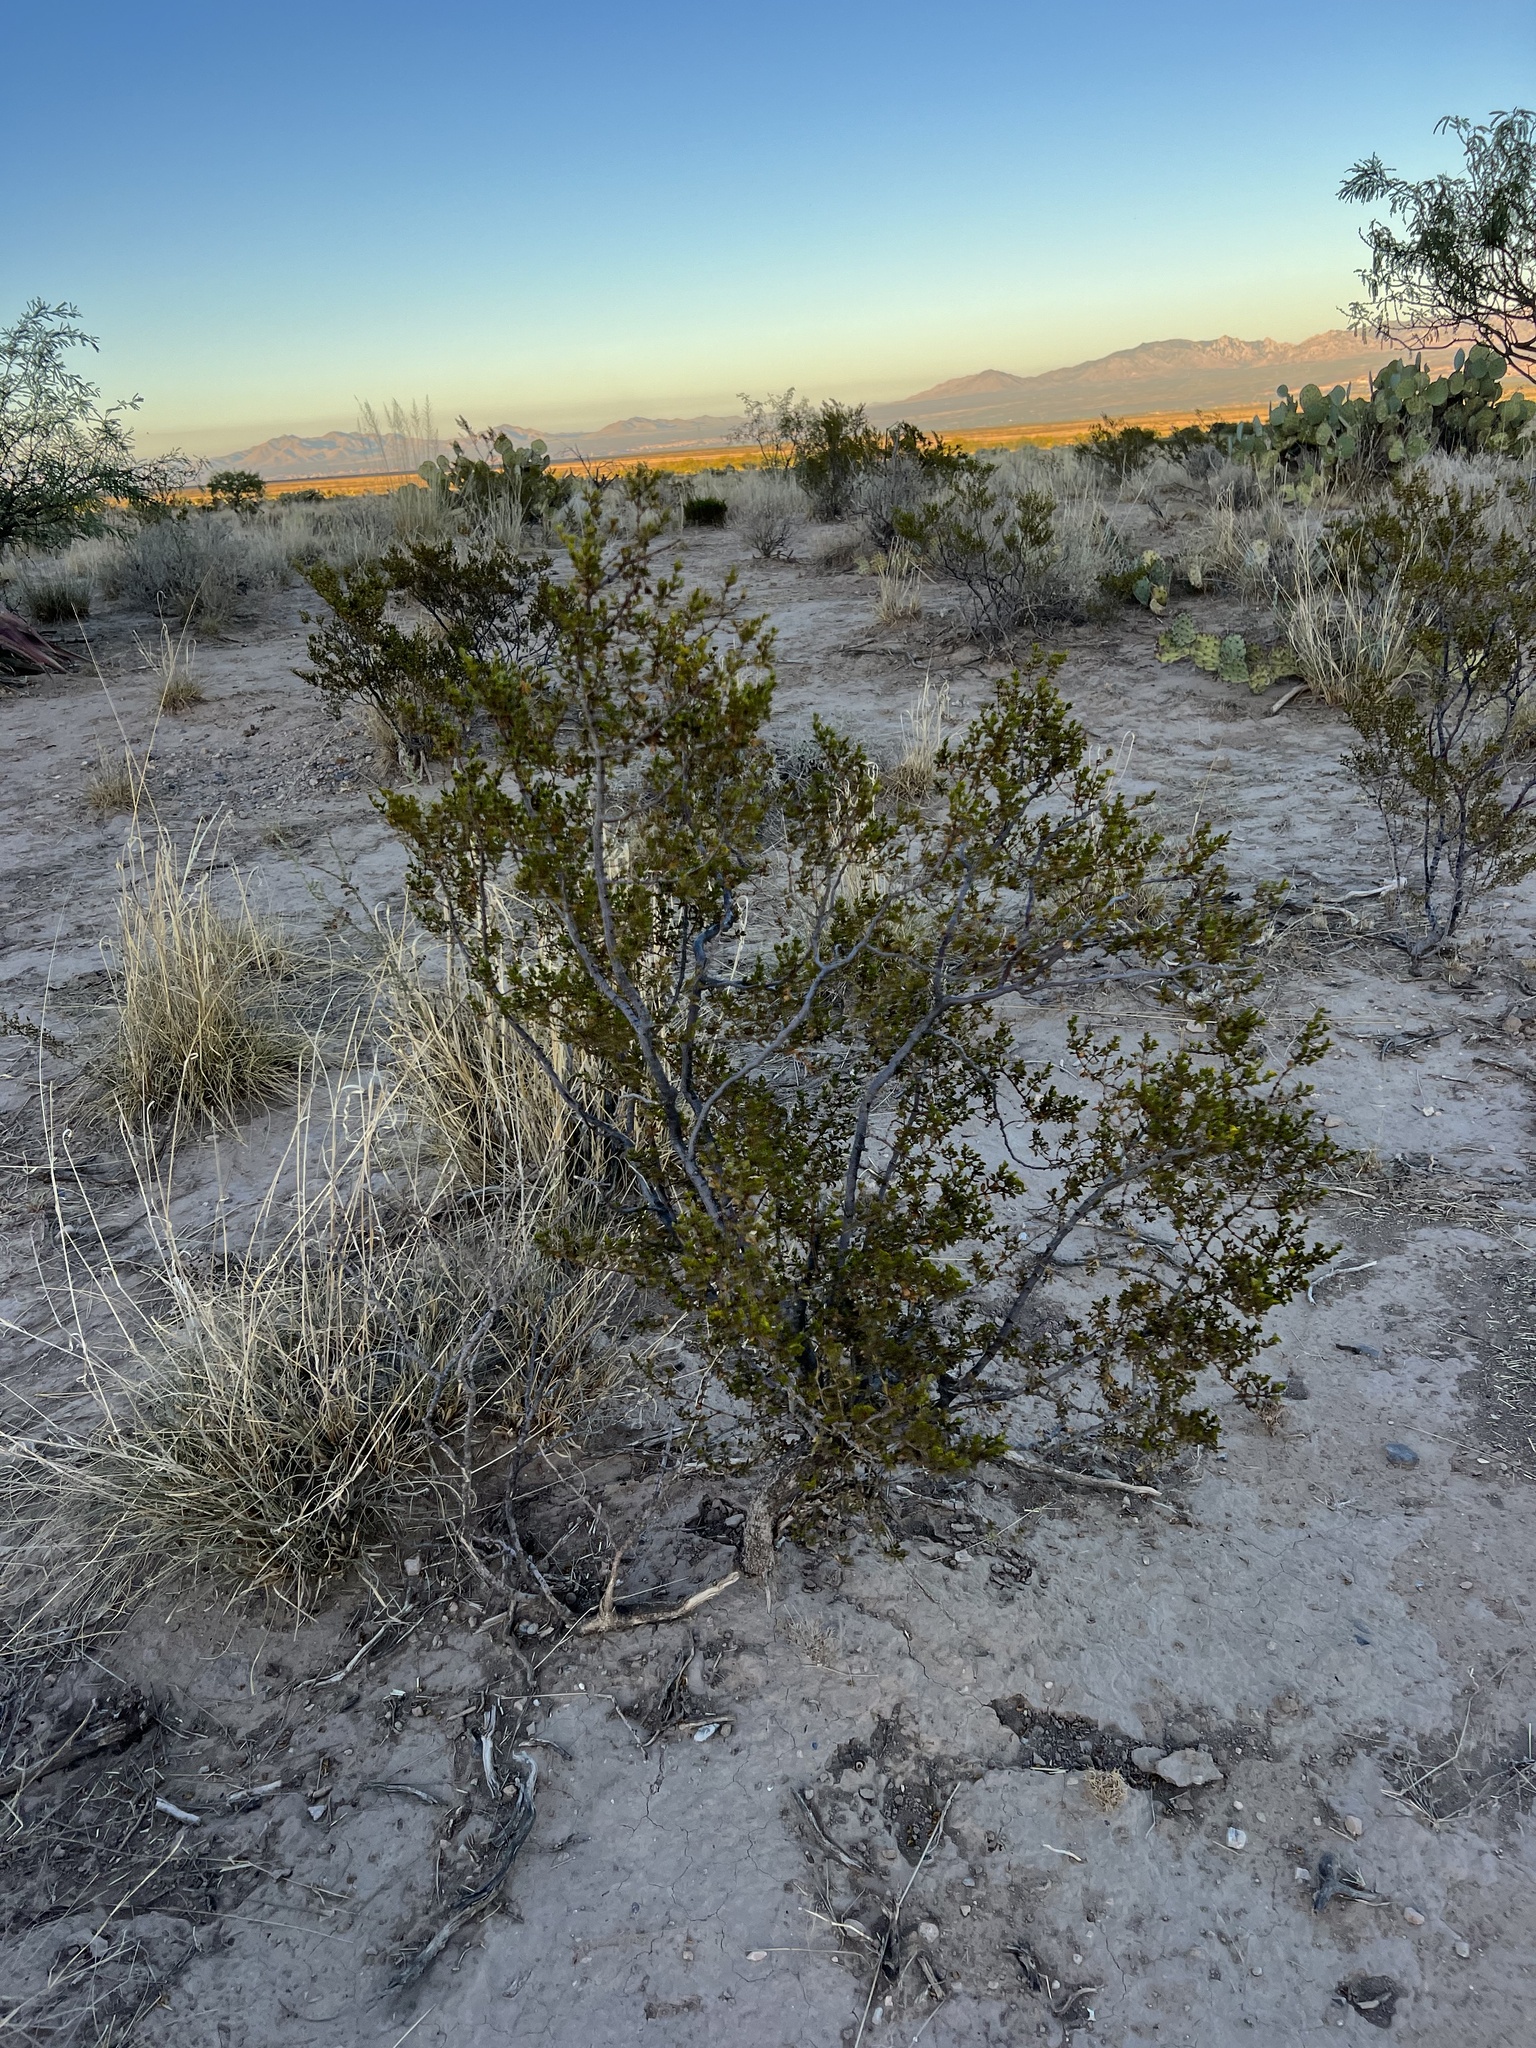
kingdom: Plantae
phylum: Tracheophyta
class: Magnoliopsida
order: Zygophyllales
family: Zygophyllaceae
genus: Larrea
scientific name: Larrea tridentata
